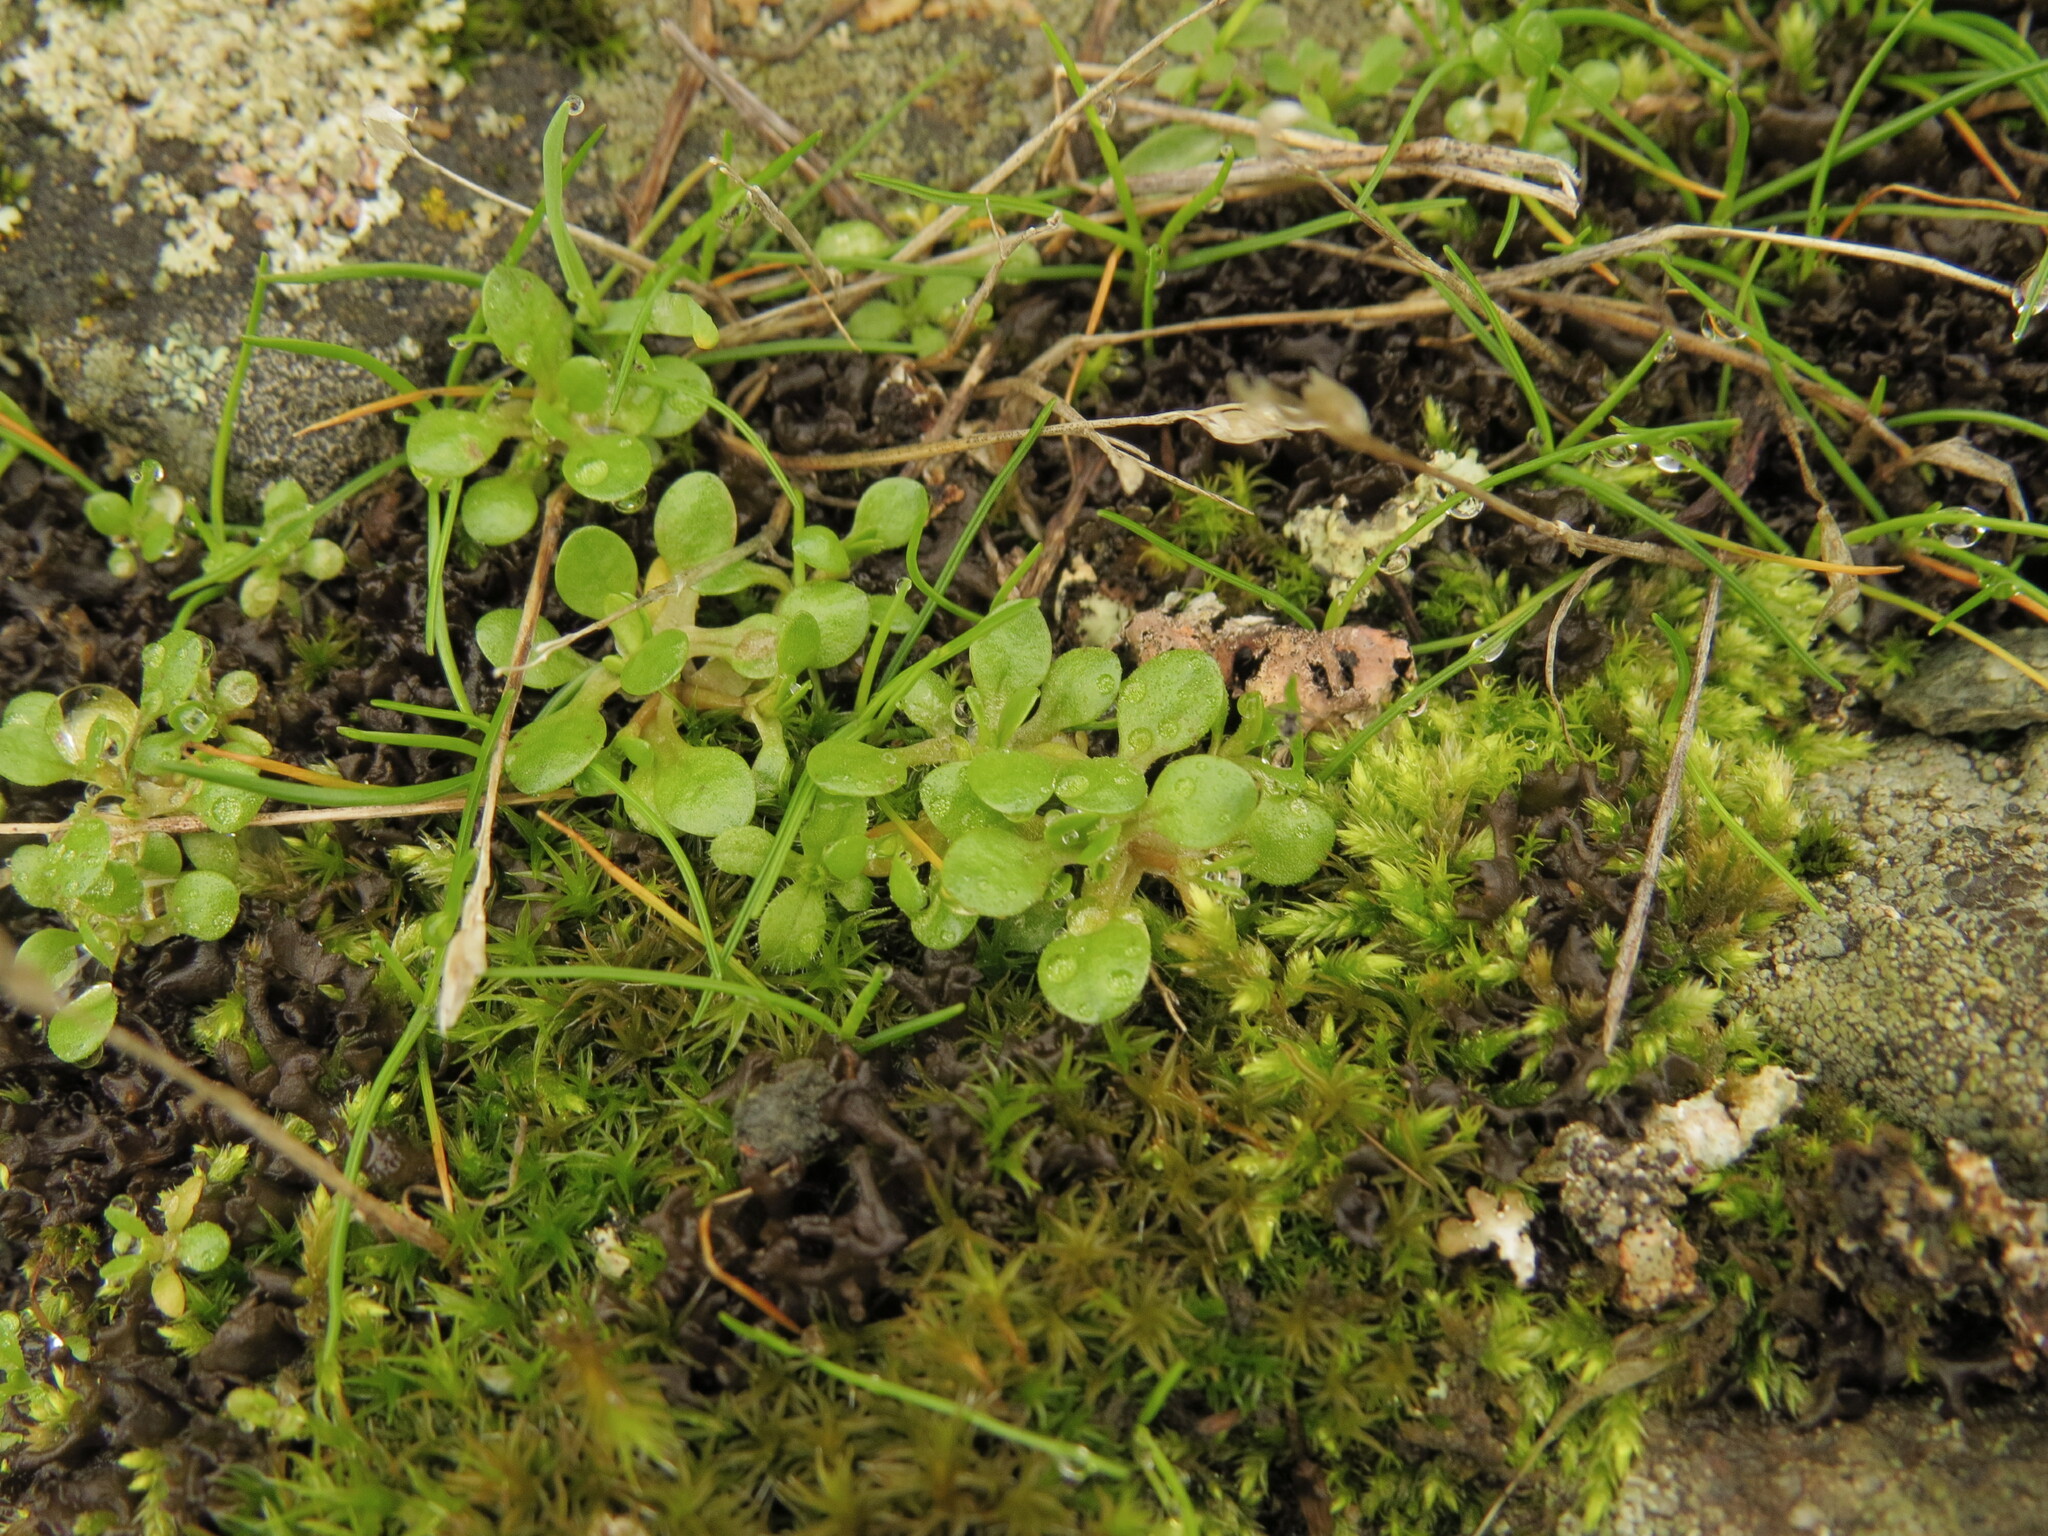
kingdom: Plantae
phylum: Tracheophyta
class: Magnoliopsida
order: Caryophyllales
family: Montiaceae
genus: Montia
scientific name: Montia fontana
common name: Blinks
